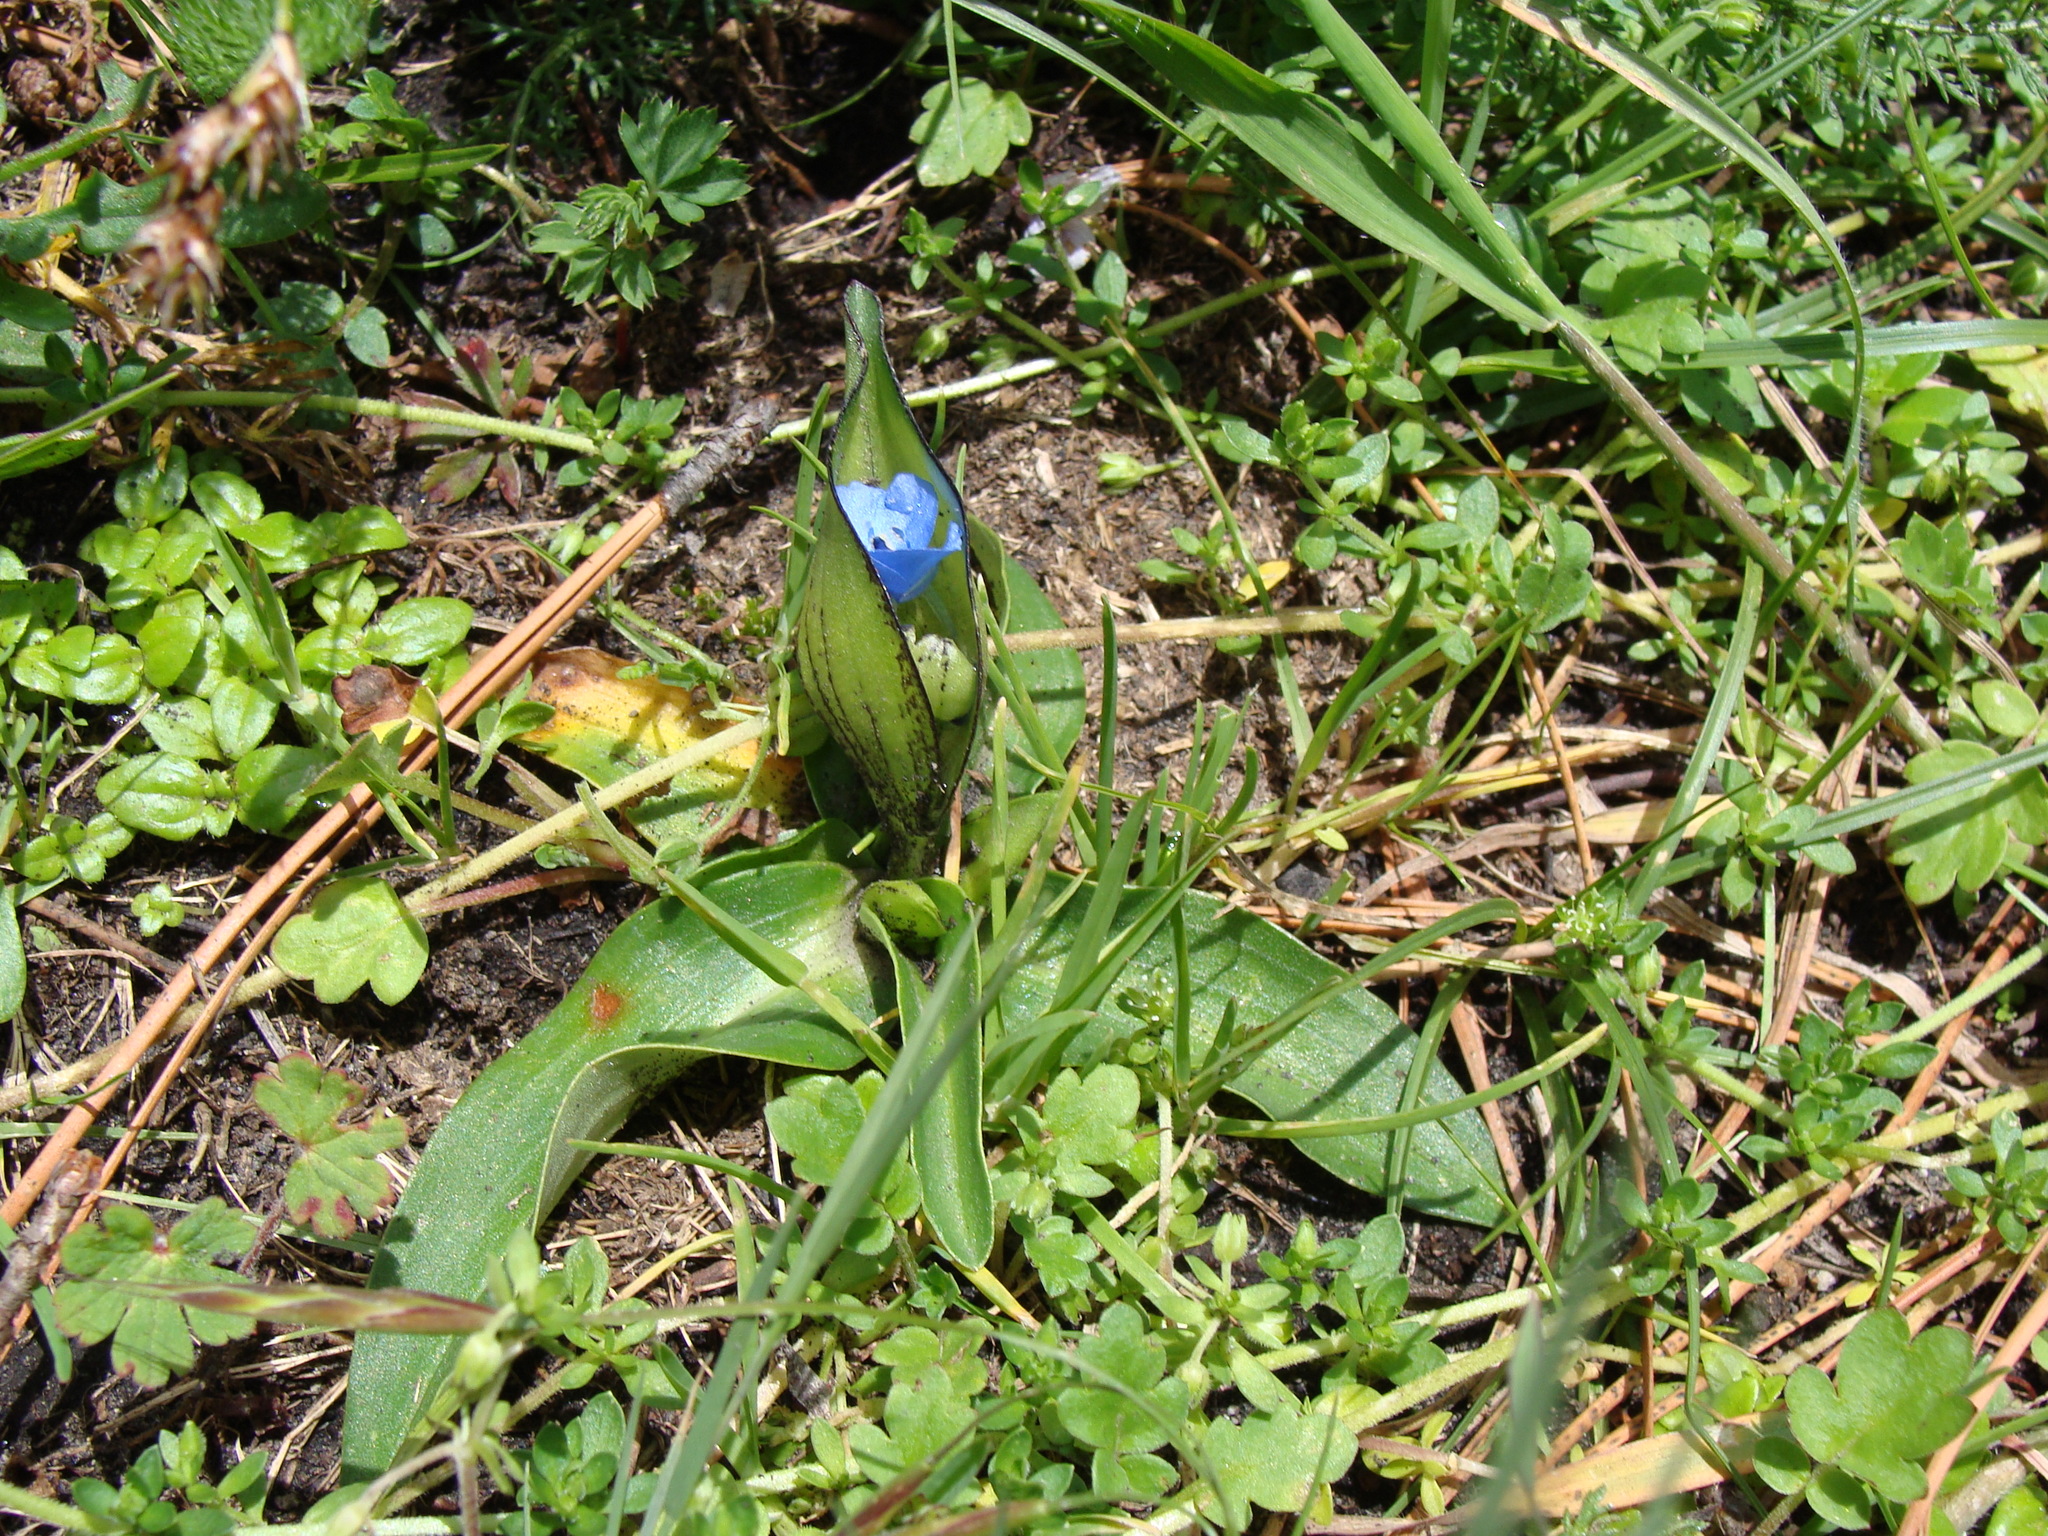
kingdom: Plantae
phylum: Tracheophyta
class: Liliopsida
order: Commelinales
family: Commelinaceae
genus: Commelina
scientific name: Commelina orchioides
